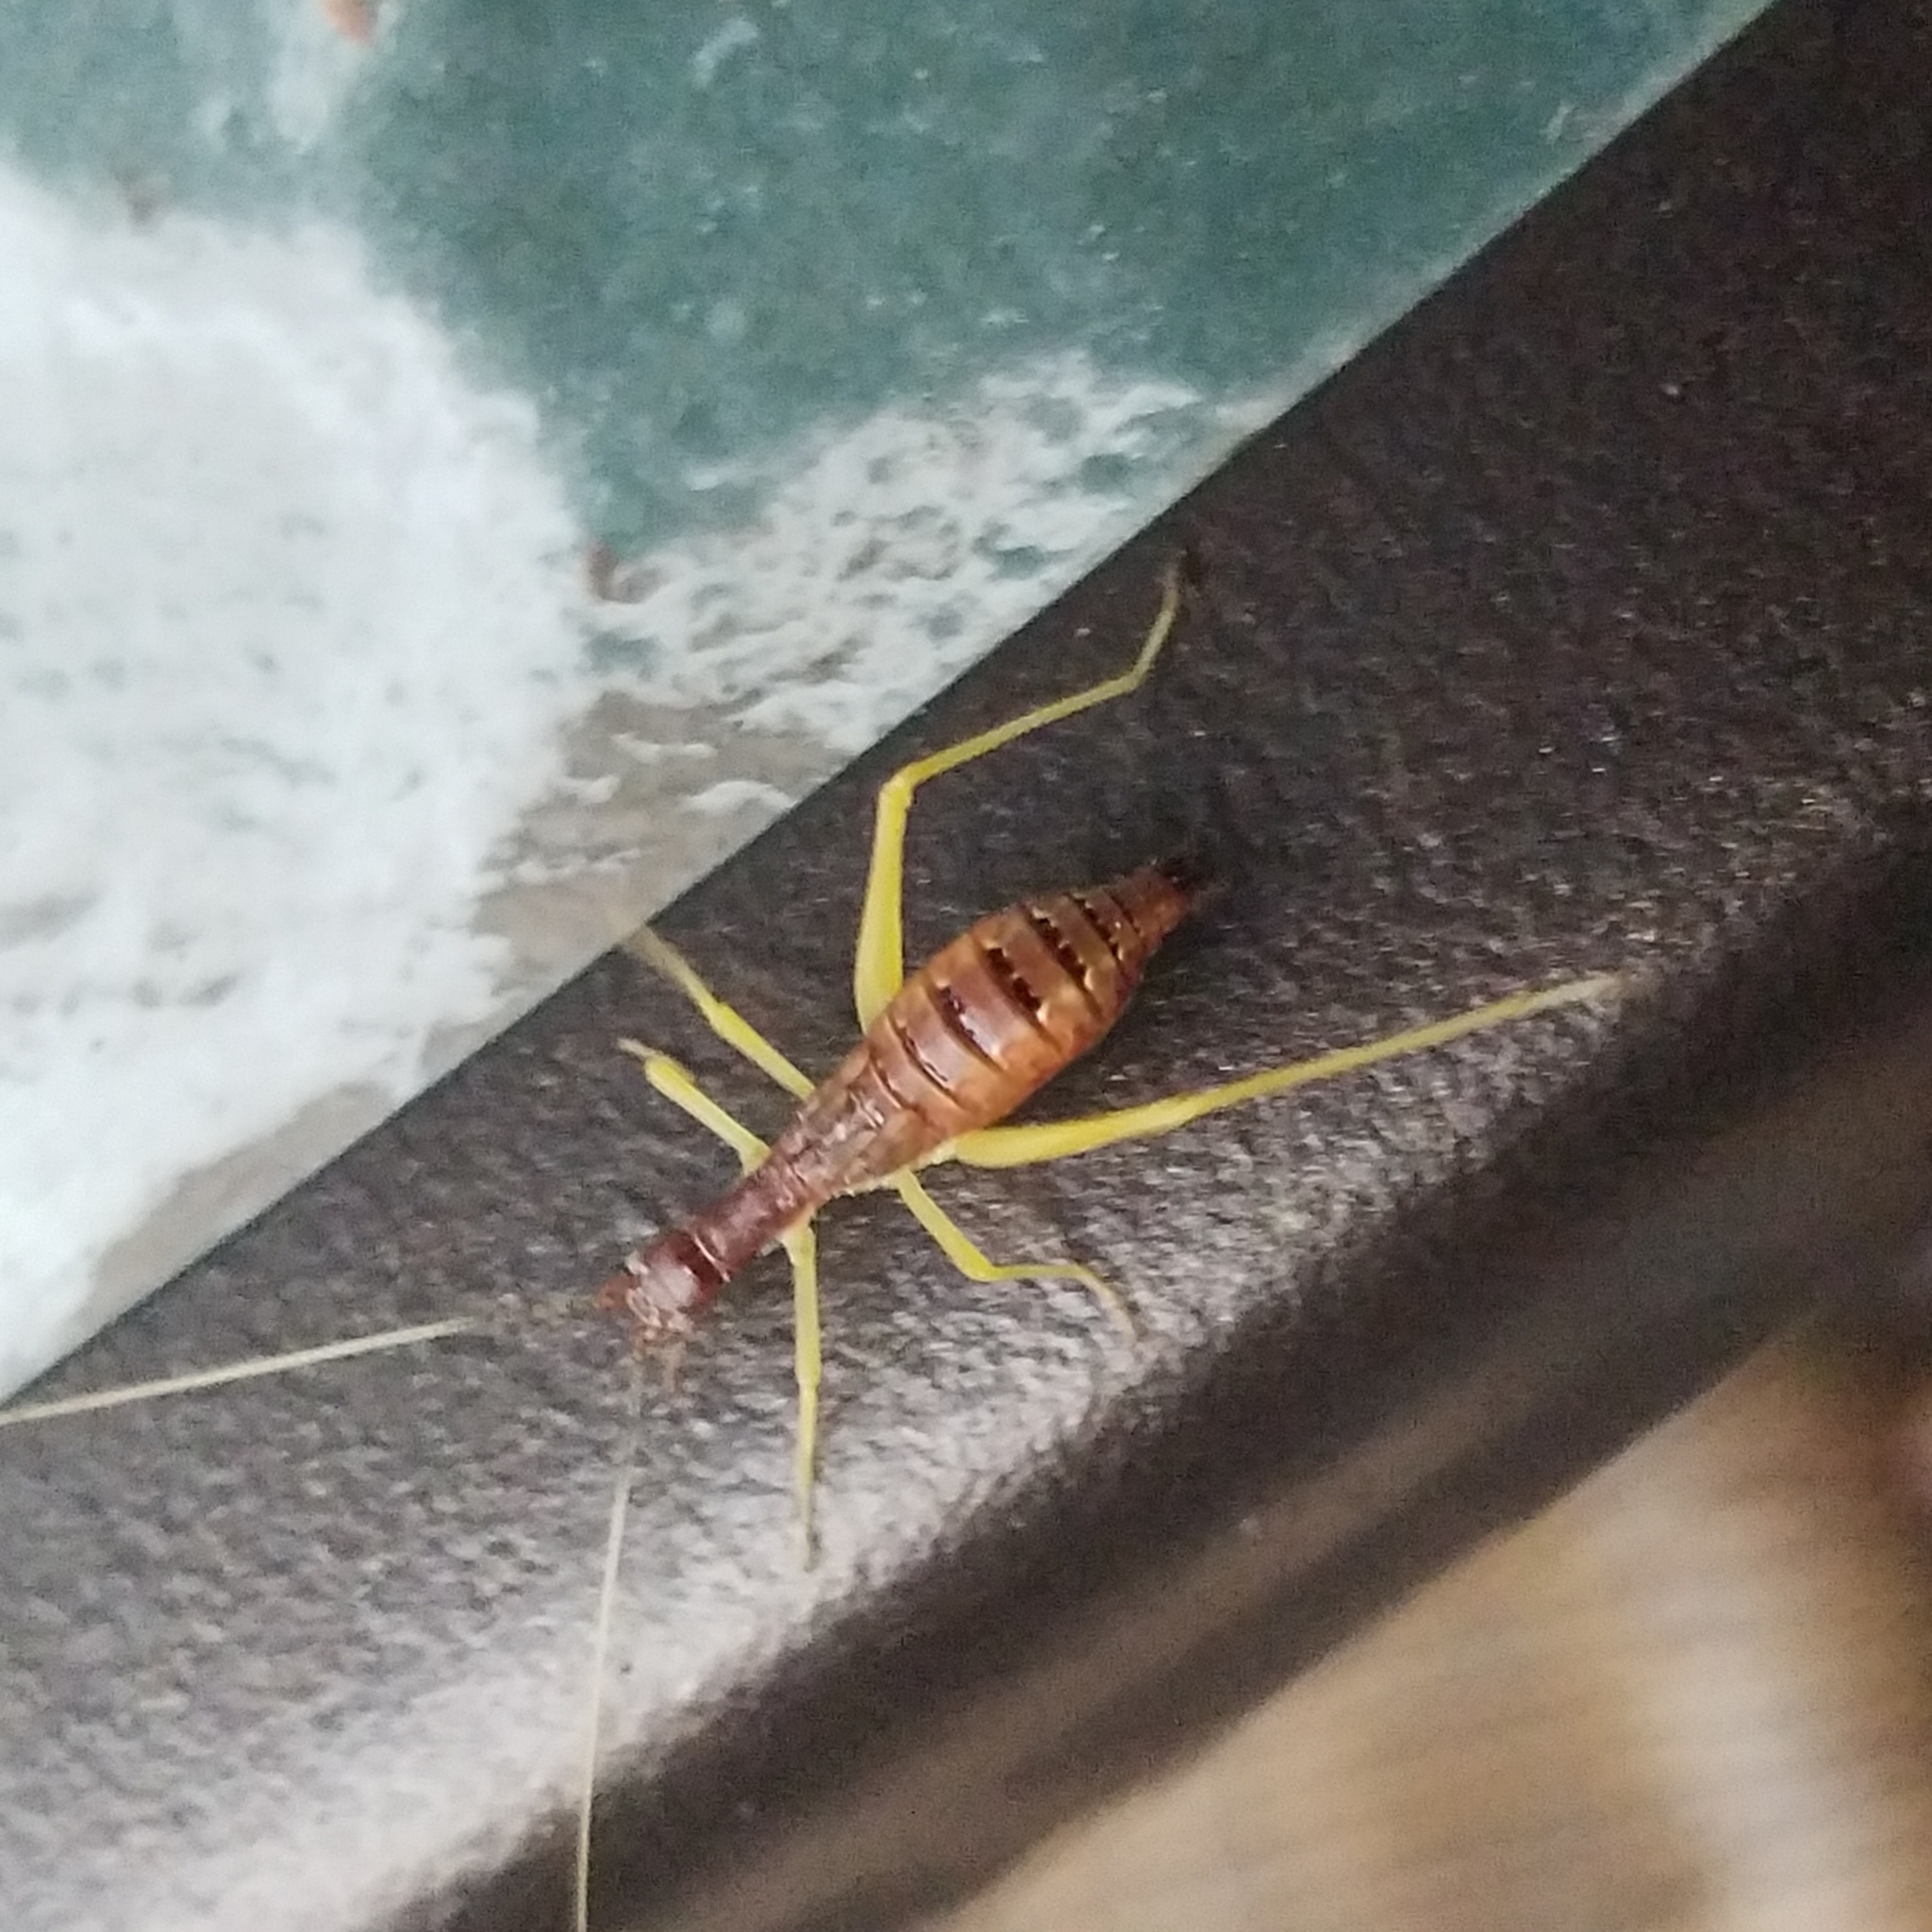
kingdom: Animalia
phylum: Arthropoda
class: Insecta
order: Orthoptera
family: Gryllidae
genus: Neoxabea
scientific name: Neoxabea bipunctata
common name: Two-spotted tree cricket
